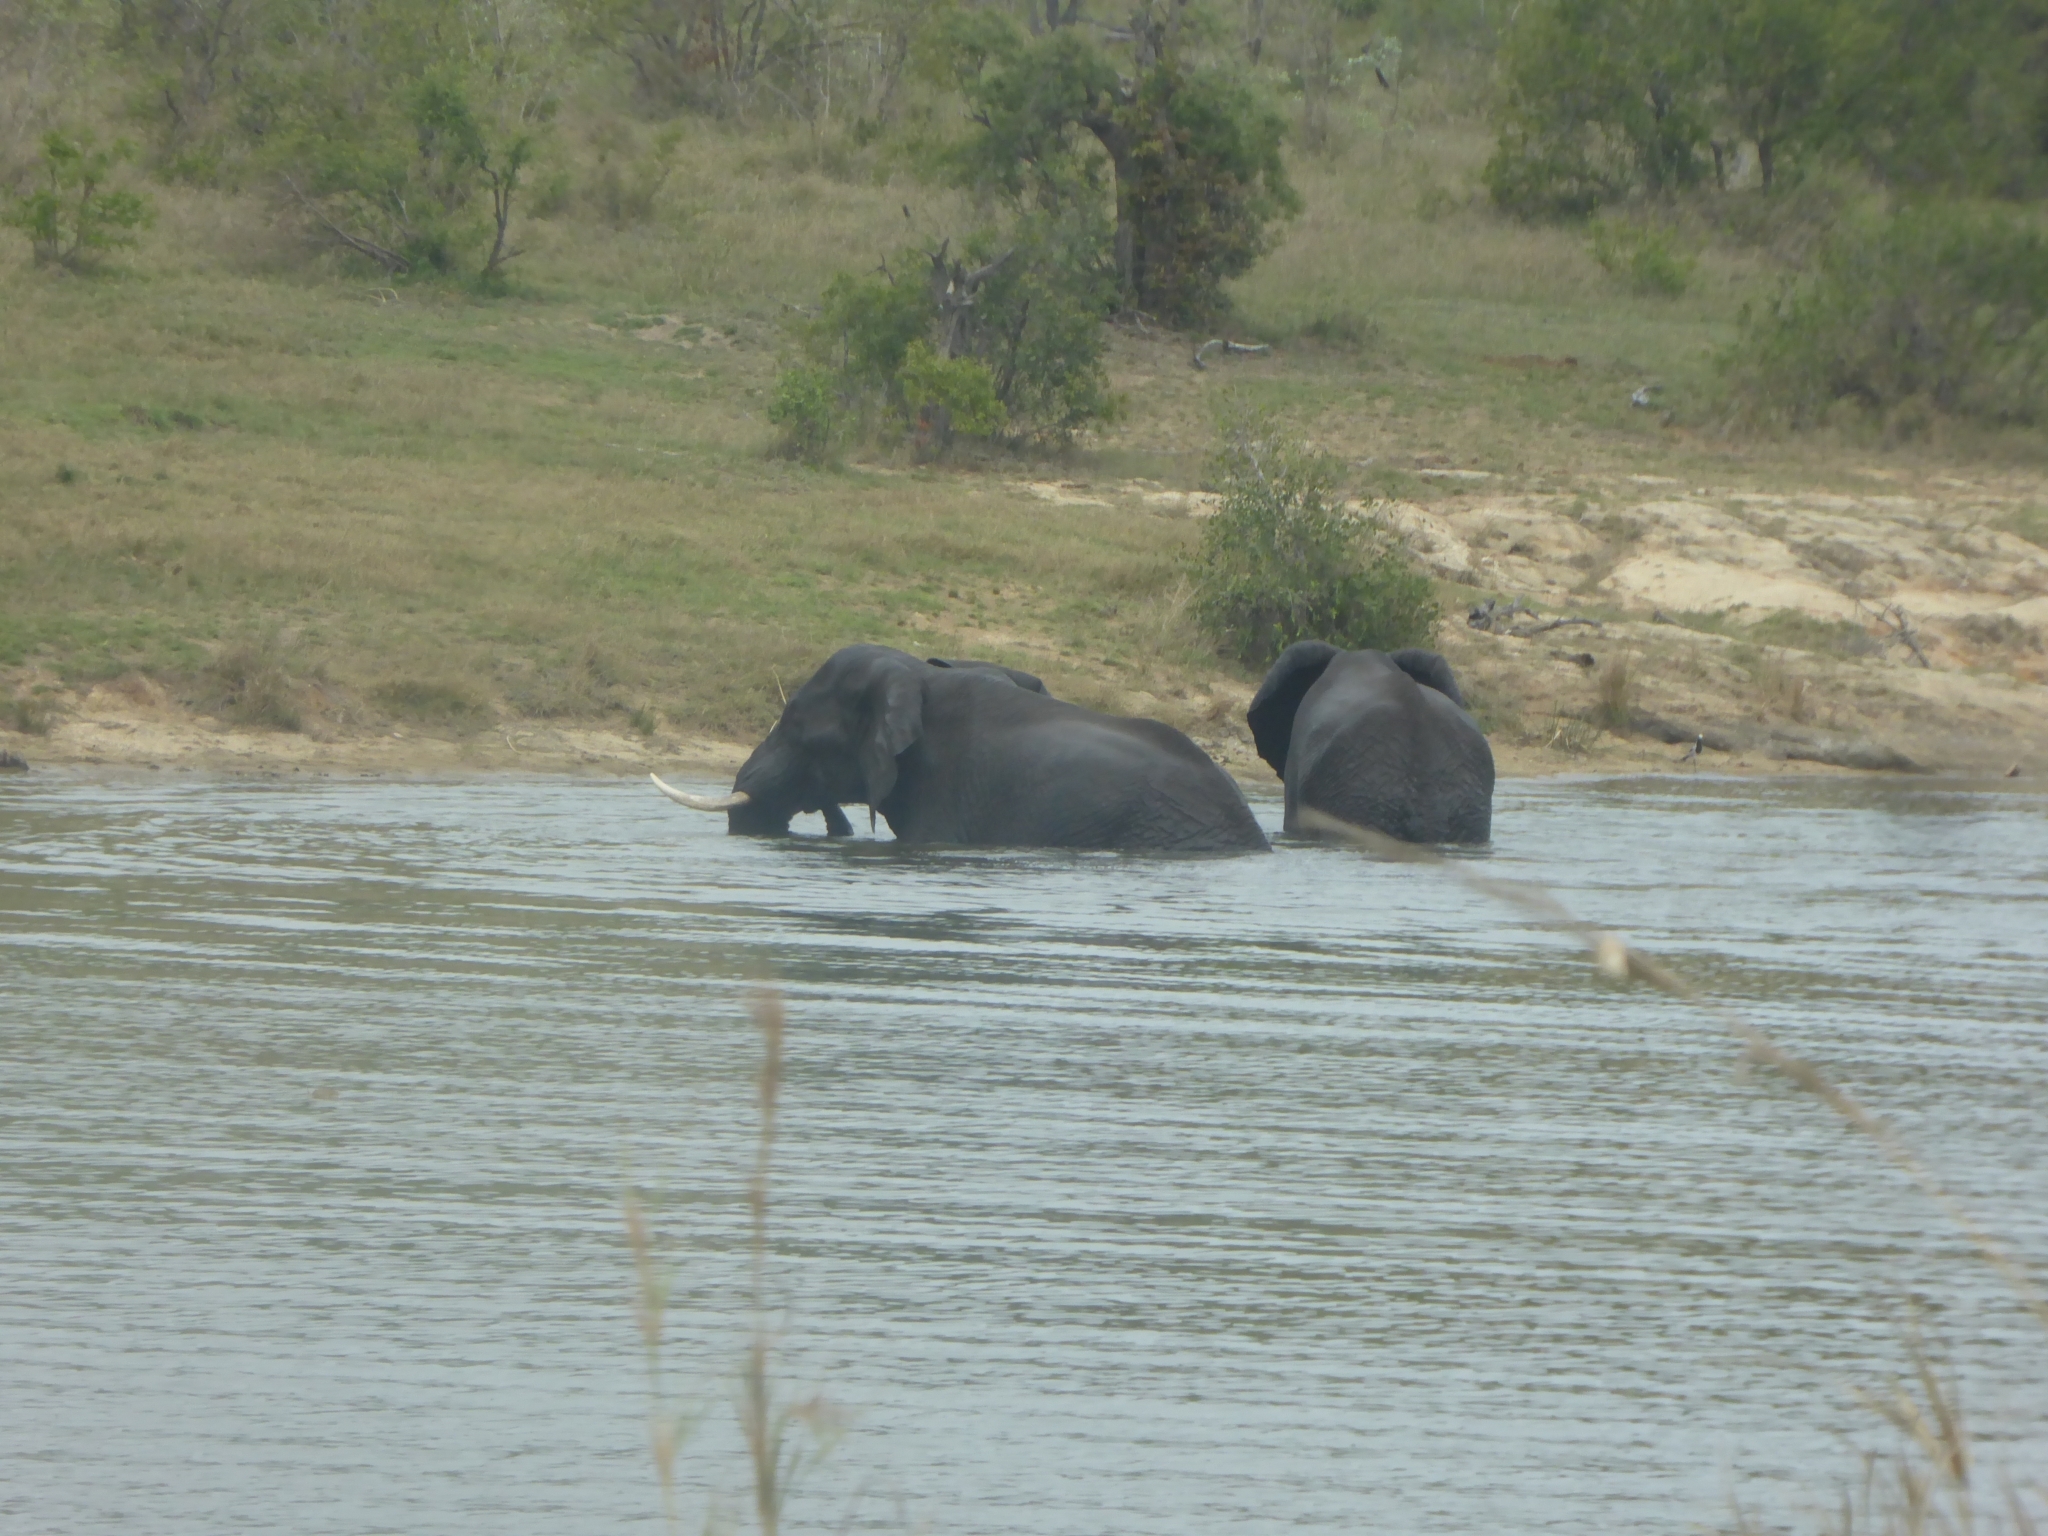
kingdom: Animalia
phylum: Chordata
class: Mammalia
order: Proboscidea
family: Elephantidae
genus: Loxodonta
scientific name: Loxodonta africana
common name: African elephant
